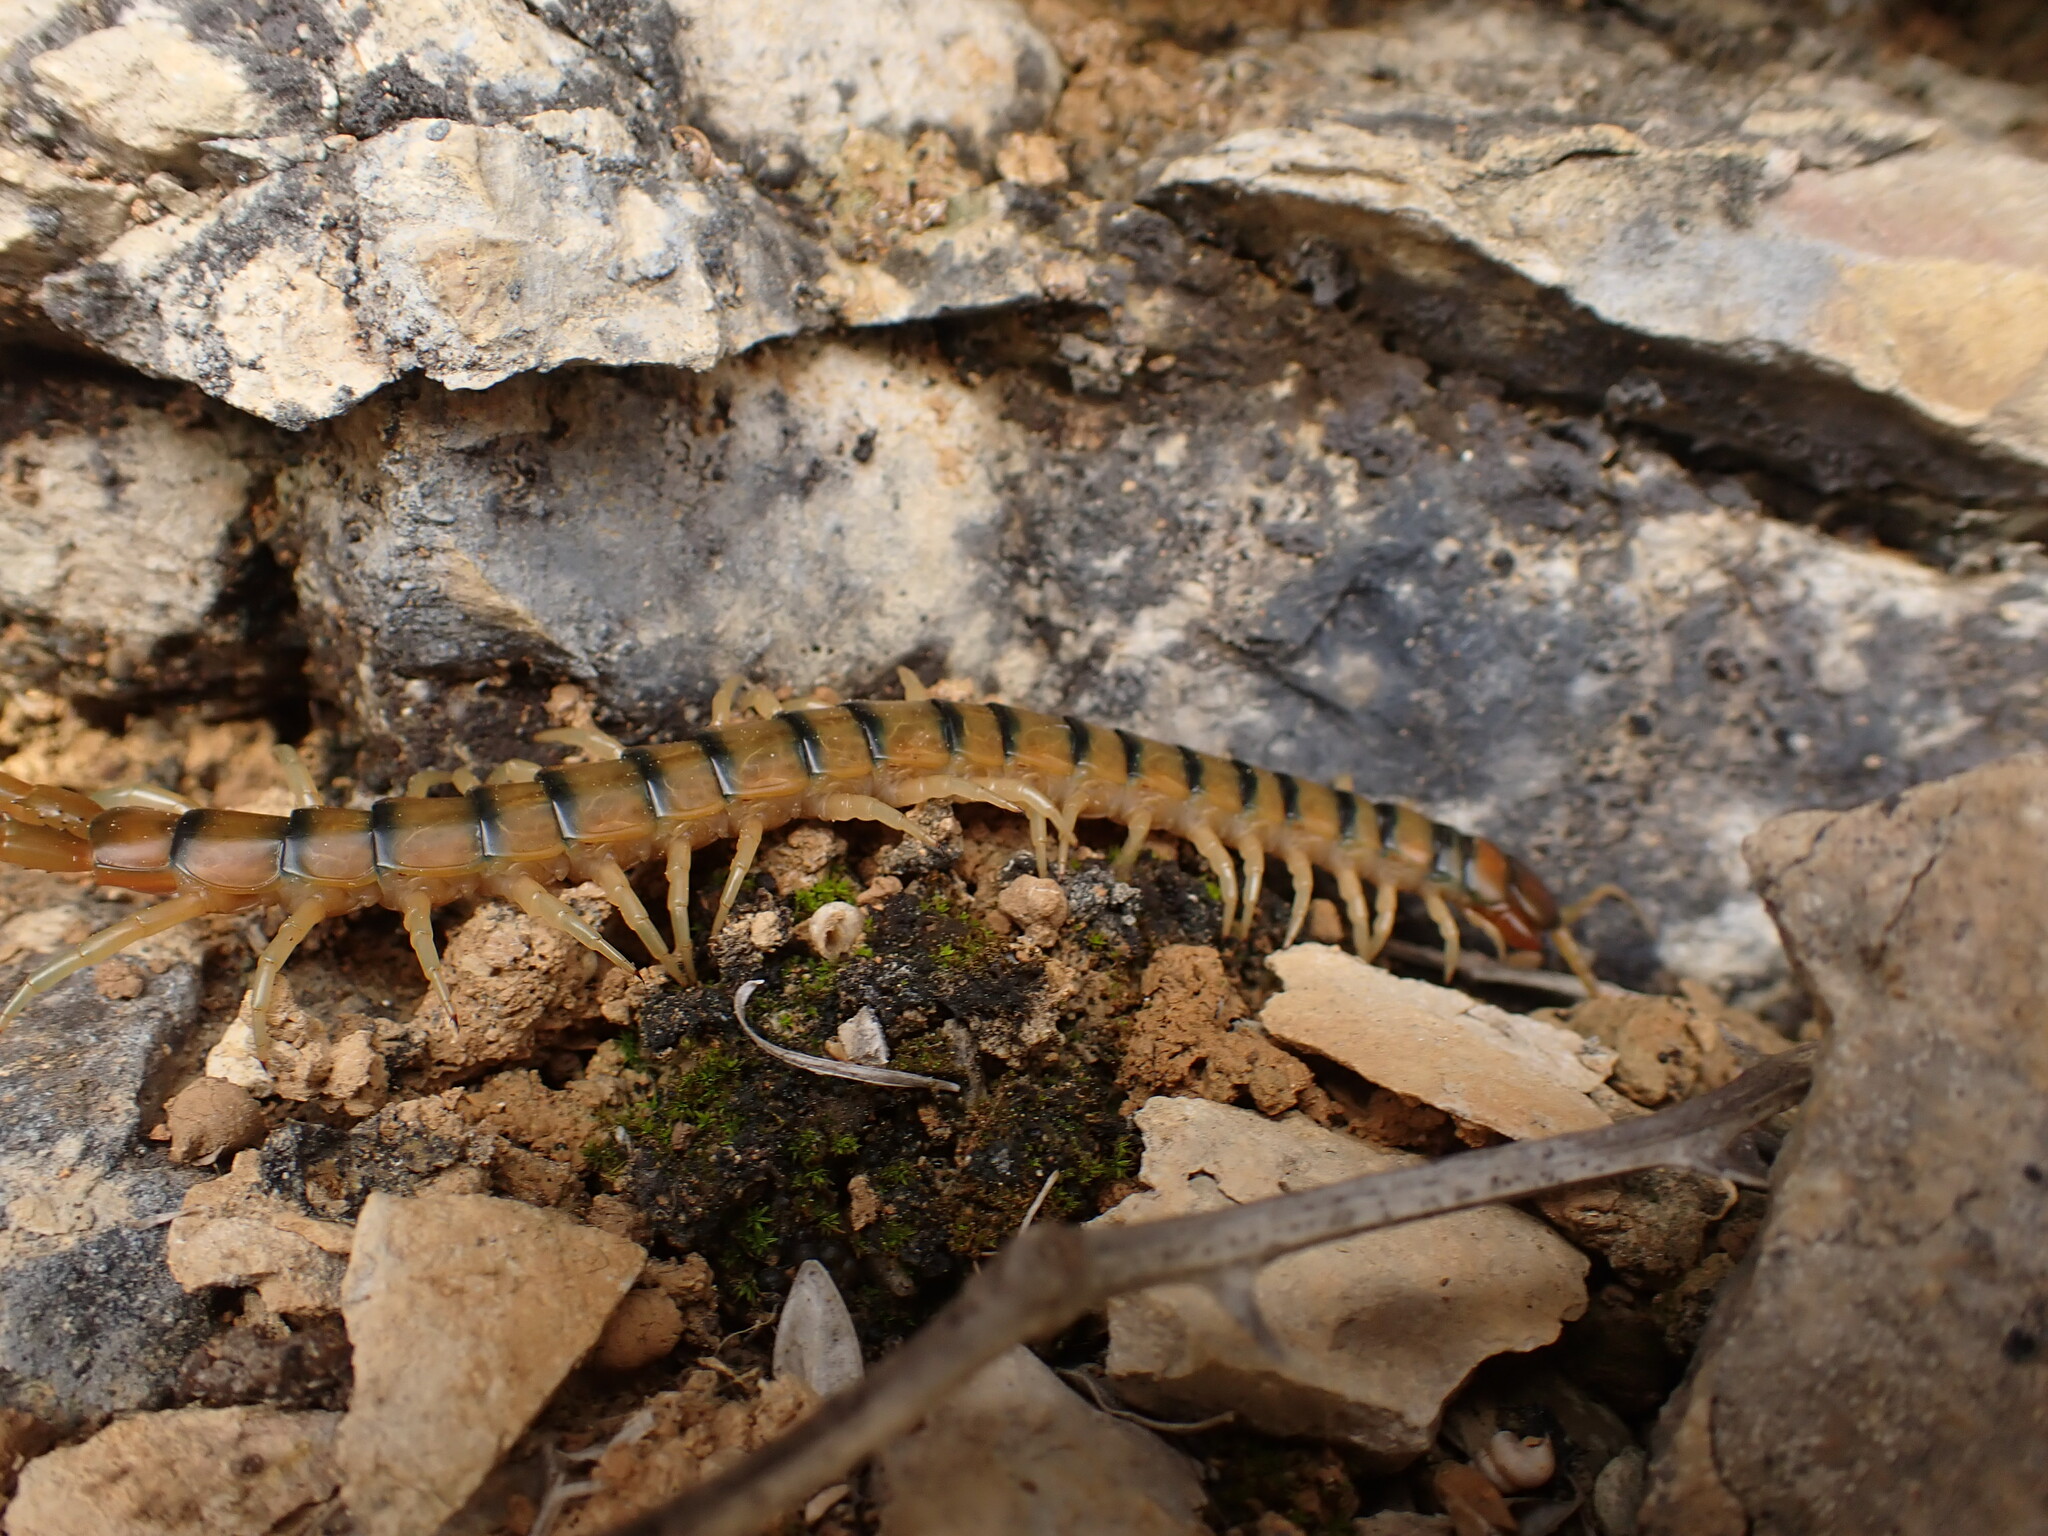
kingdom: Animalia
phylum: Arthropoda
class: Chilopoda
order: Scolopendromorpha
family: Scolopendridae
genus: Scolopendra
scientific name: Scolopendra cingulata
